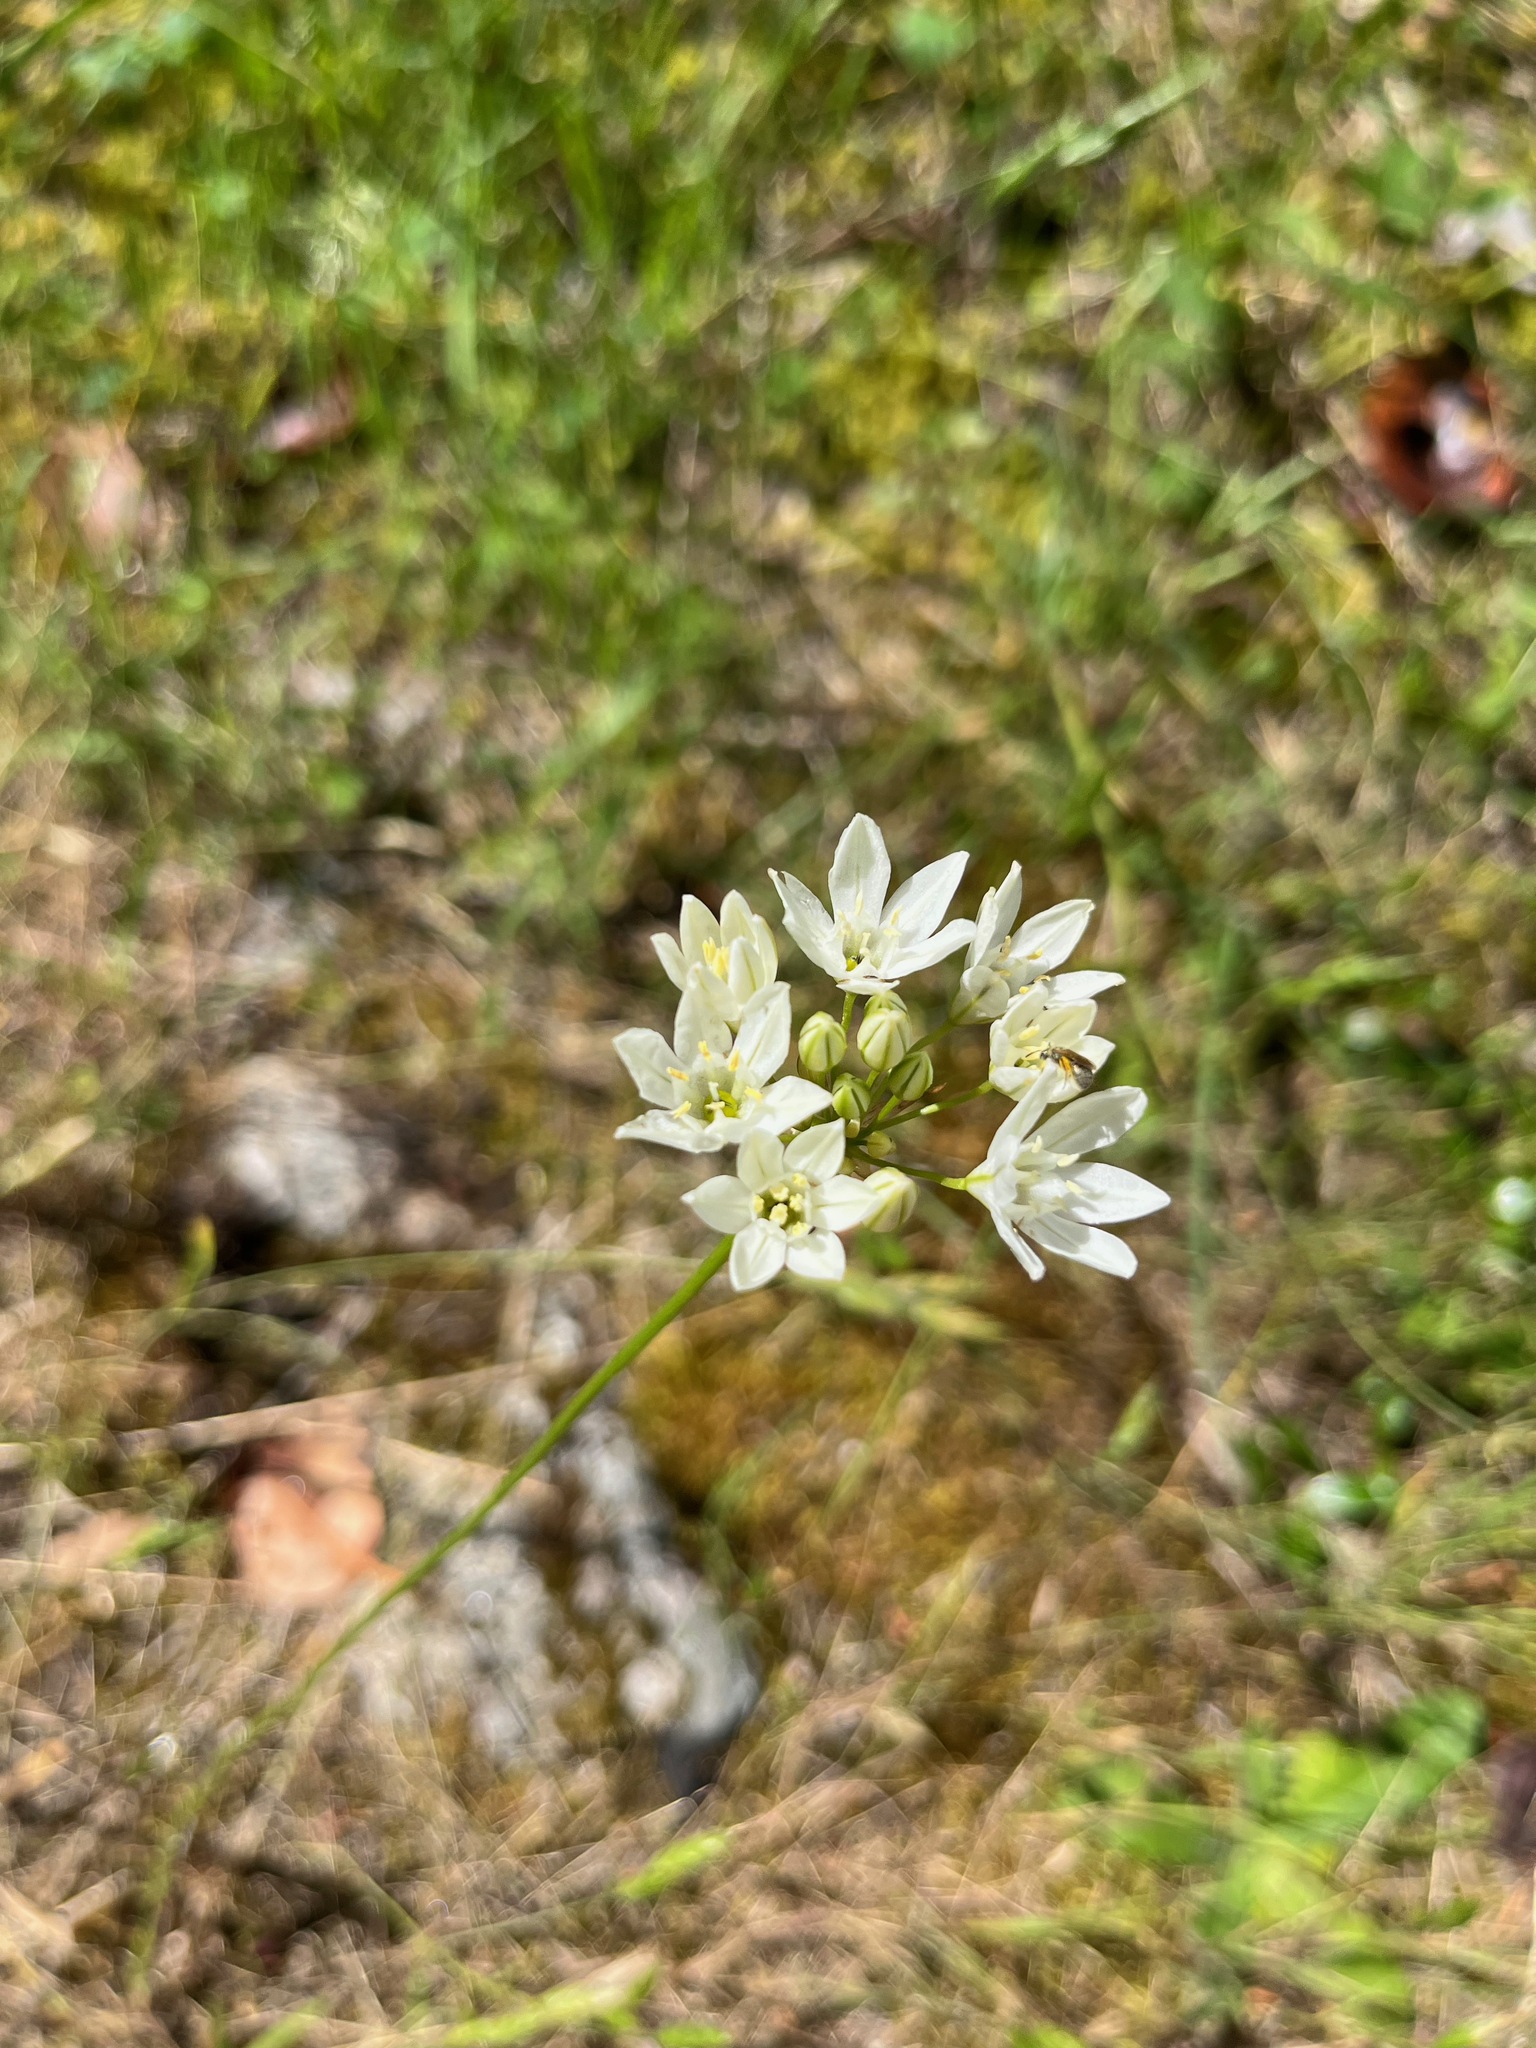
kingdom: Plantae
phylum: Tracheophyta
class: Liliopsida
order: Asparagales
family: Asparagaceae
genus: Triteleia
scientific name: Triteleia hyacinthina
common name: White brodiaea
